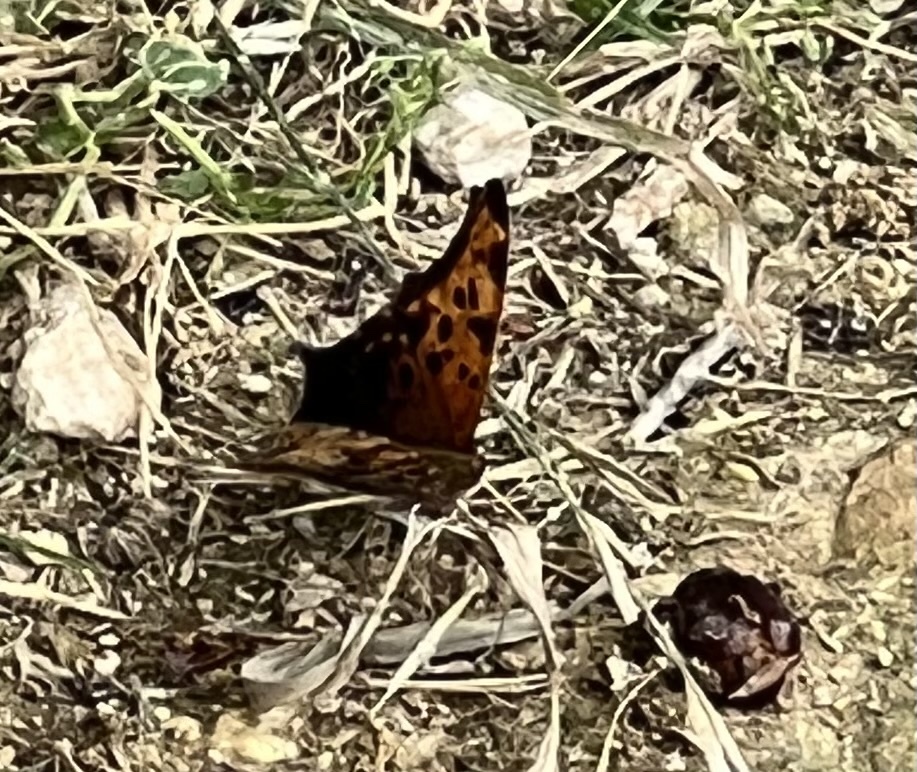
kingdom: Animalia
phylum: Arthropoda
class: Insecta
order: Lepidoptera
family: Nymphalidae
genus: Polygonia
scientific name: Polygonia interrogationis
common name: Question mark
